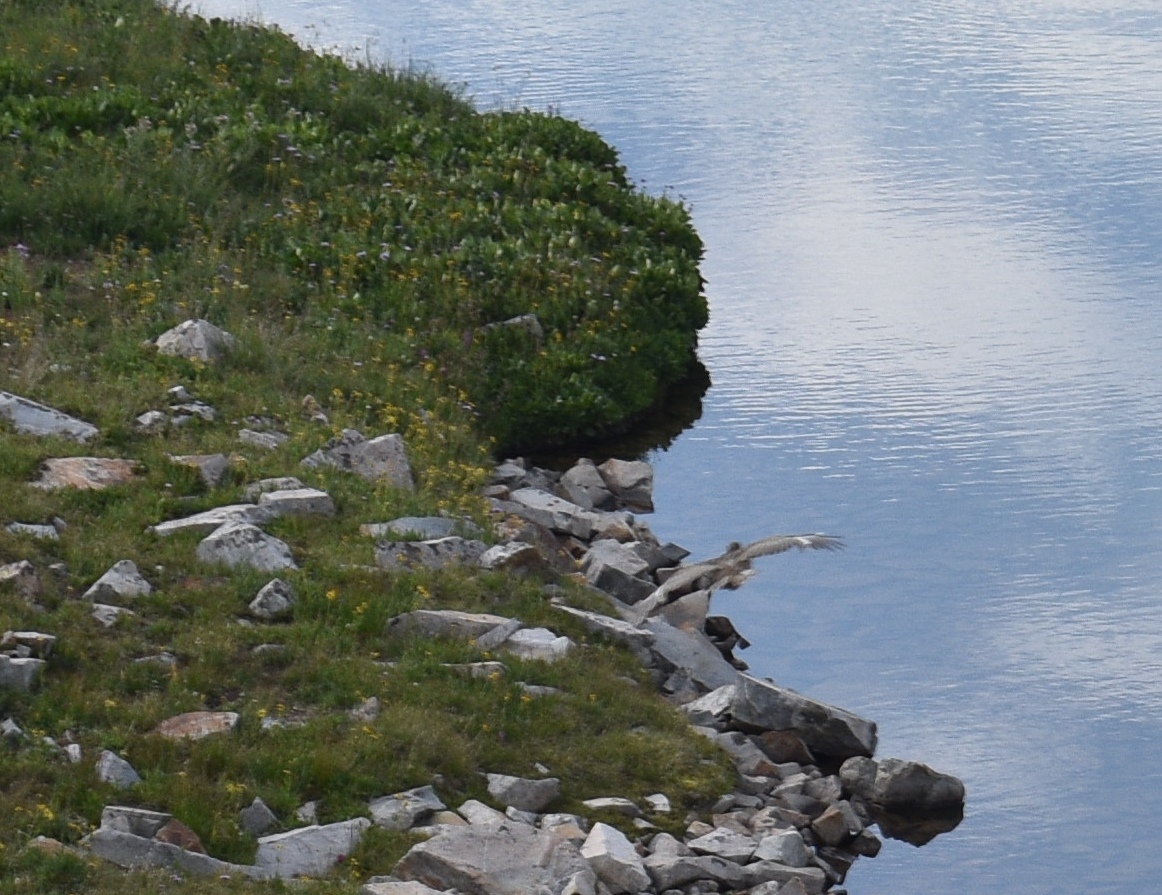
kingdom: Animalia
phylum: Chordata
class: Aves
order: Galliformes
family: Phasianidae
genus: Lagopus
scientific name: Lagopus leucura
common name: White-tailed ptarmigan
